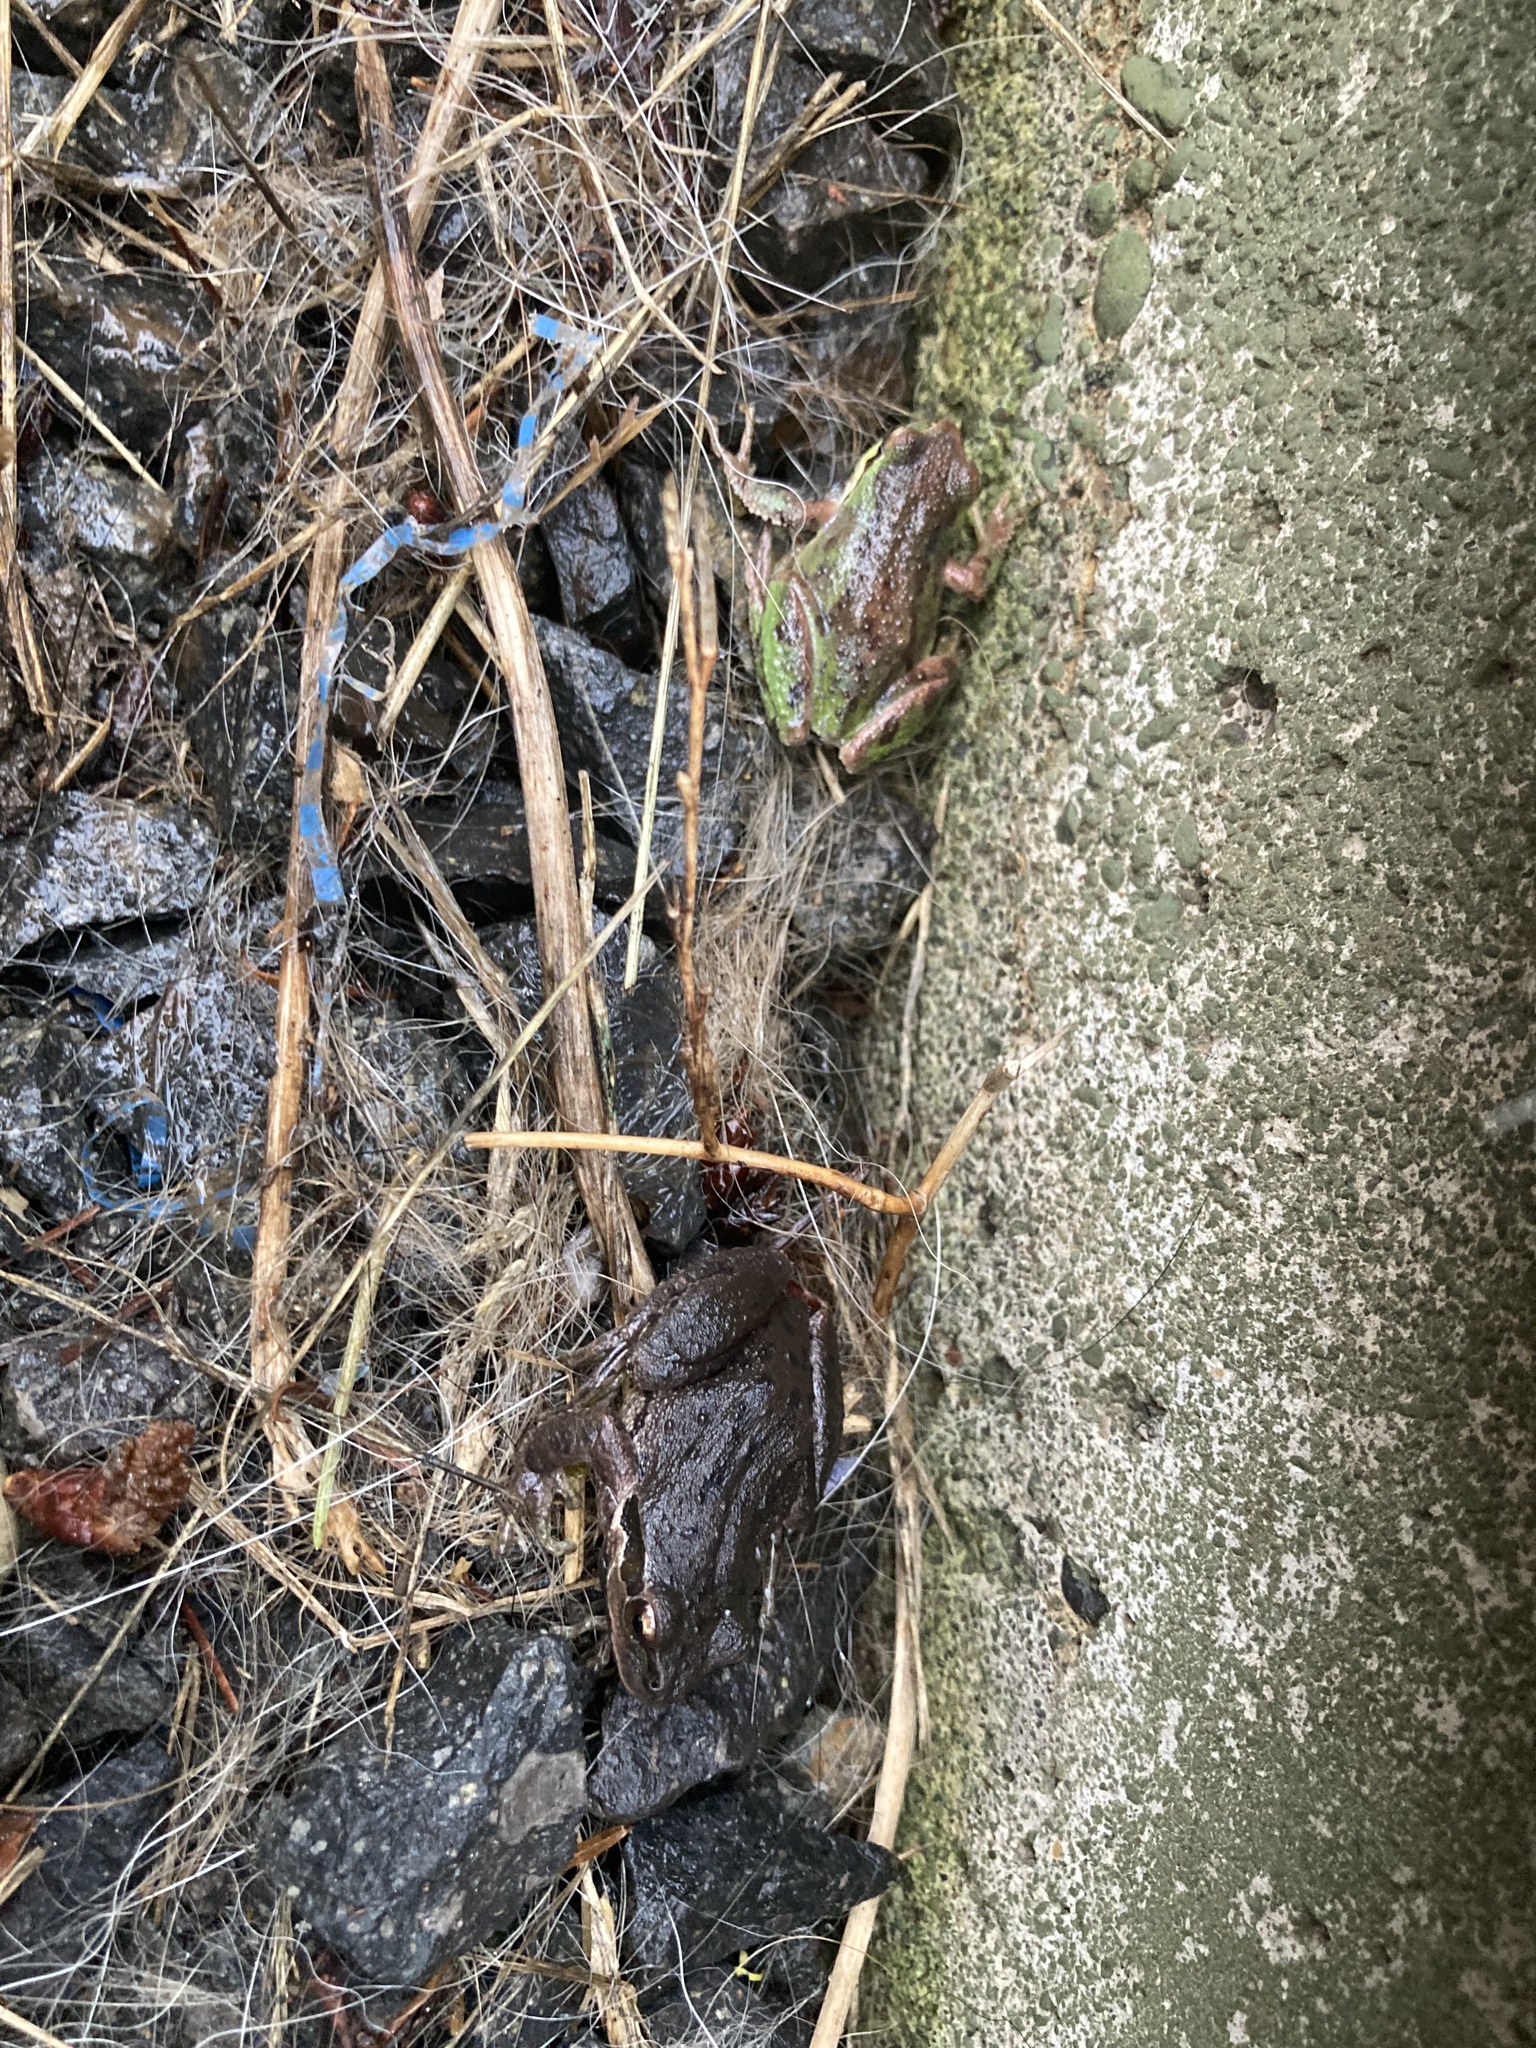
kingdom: Animalia
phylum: Chordata
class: Amphibia
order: Anura
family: Hylidae
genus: Pseudacris
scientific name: Pseudacris regilla
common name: Pacific chorus frog
